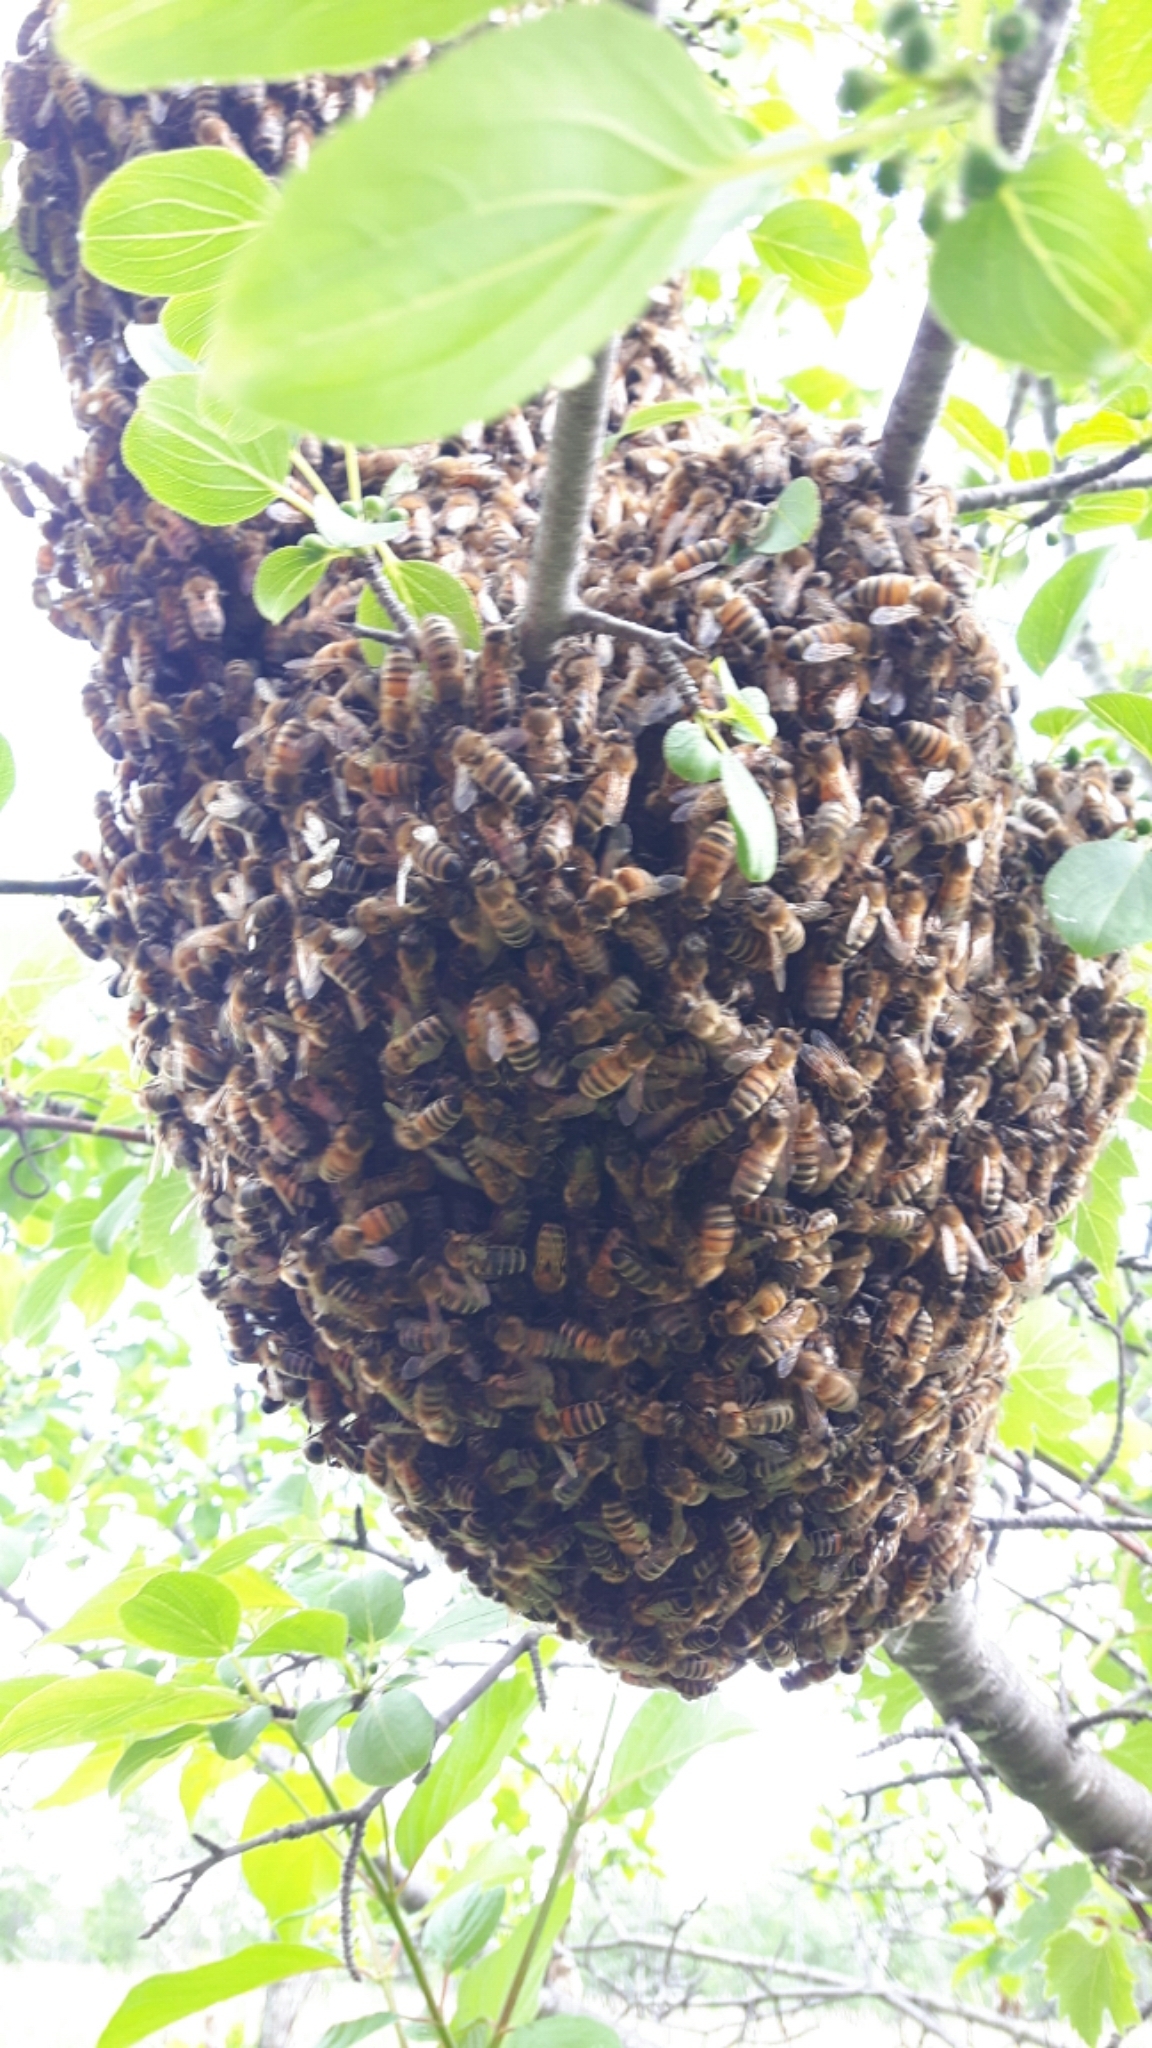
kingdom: Animalia
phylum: Arthropoda
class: Insecta
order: Hymenoptera
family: Apidae
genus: Apis
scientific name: Apis mellifera
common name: Honey bee
